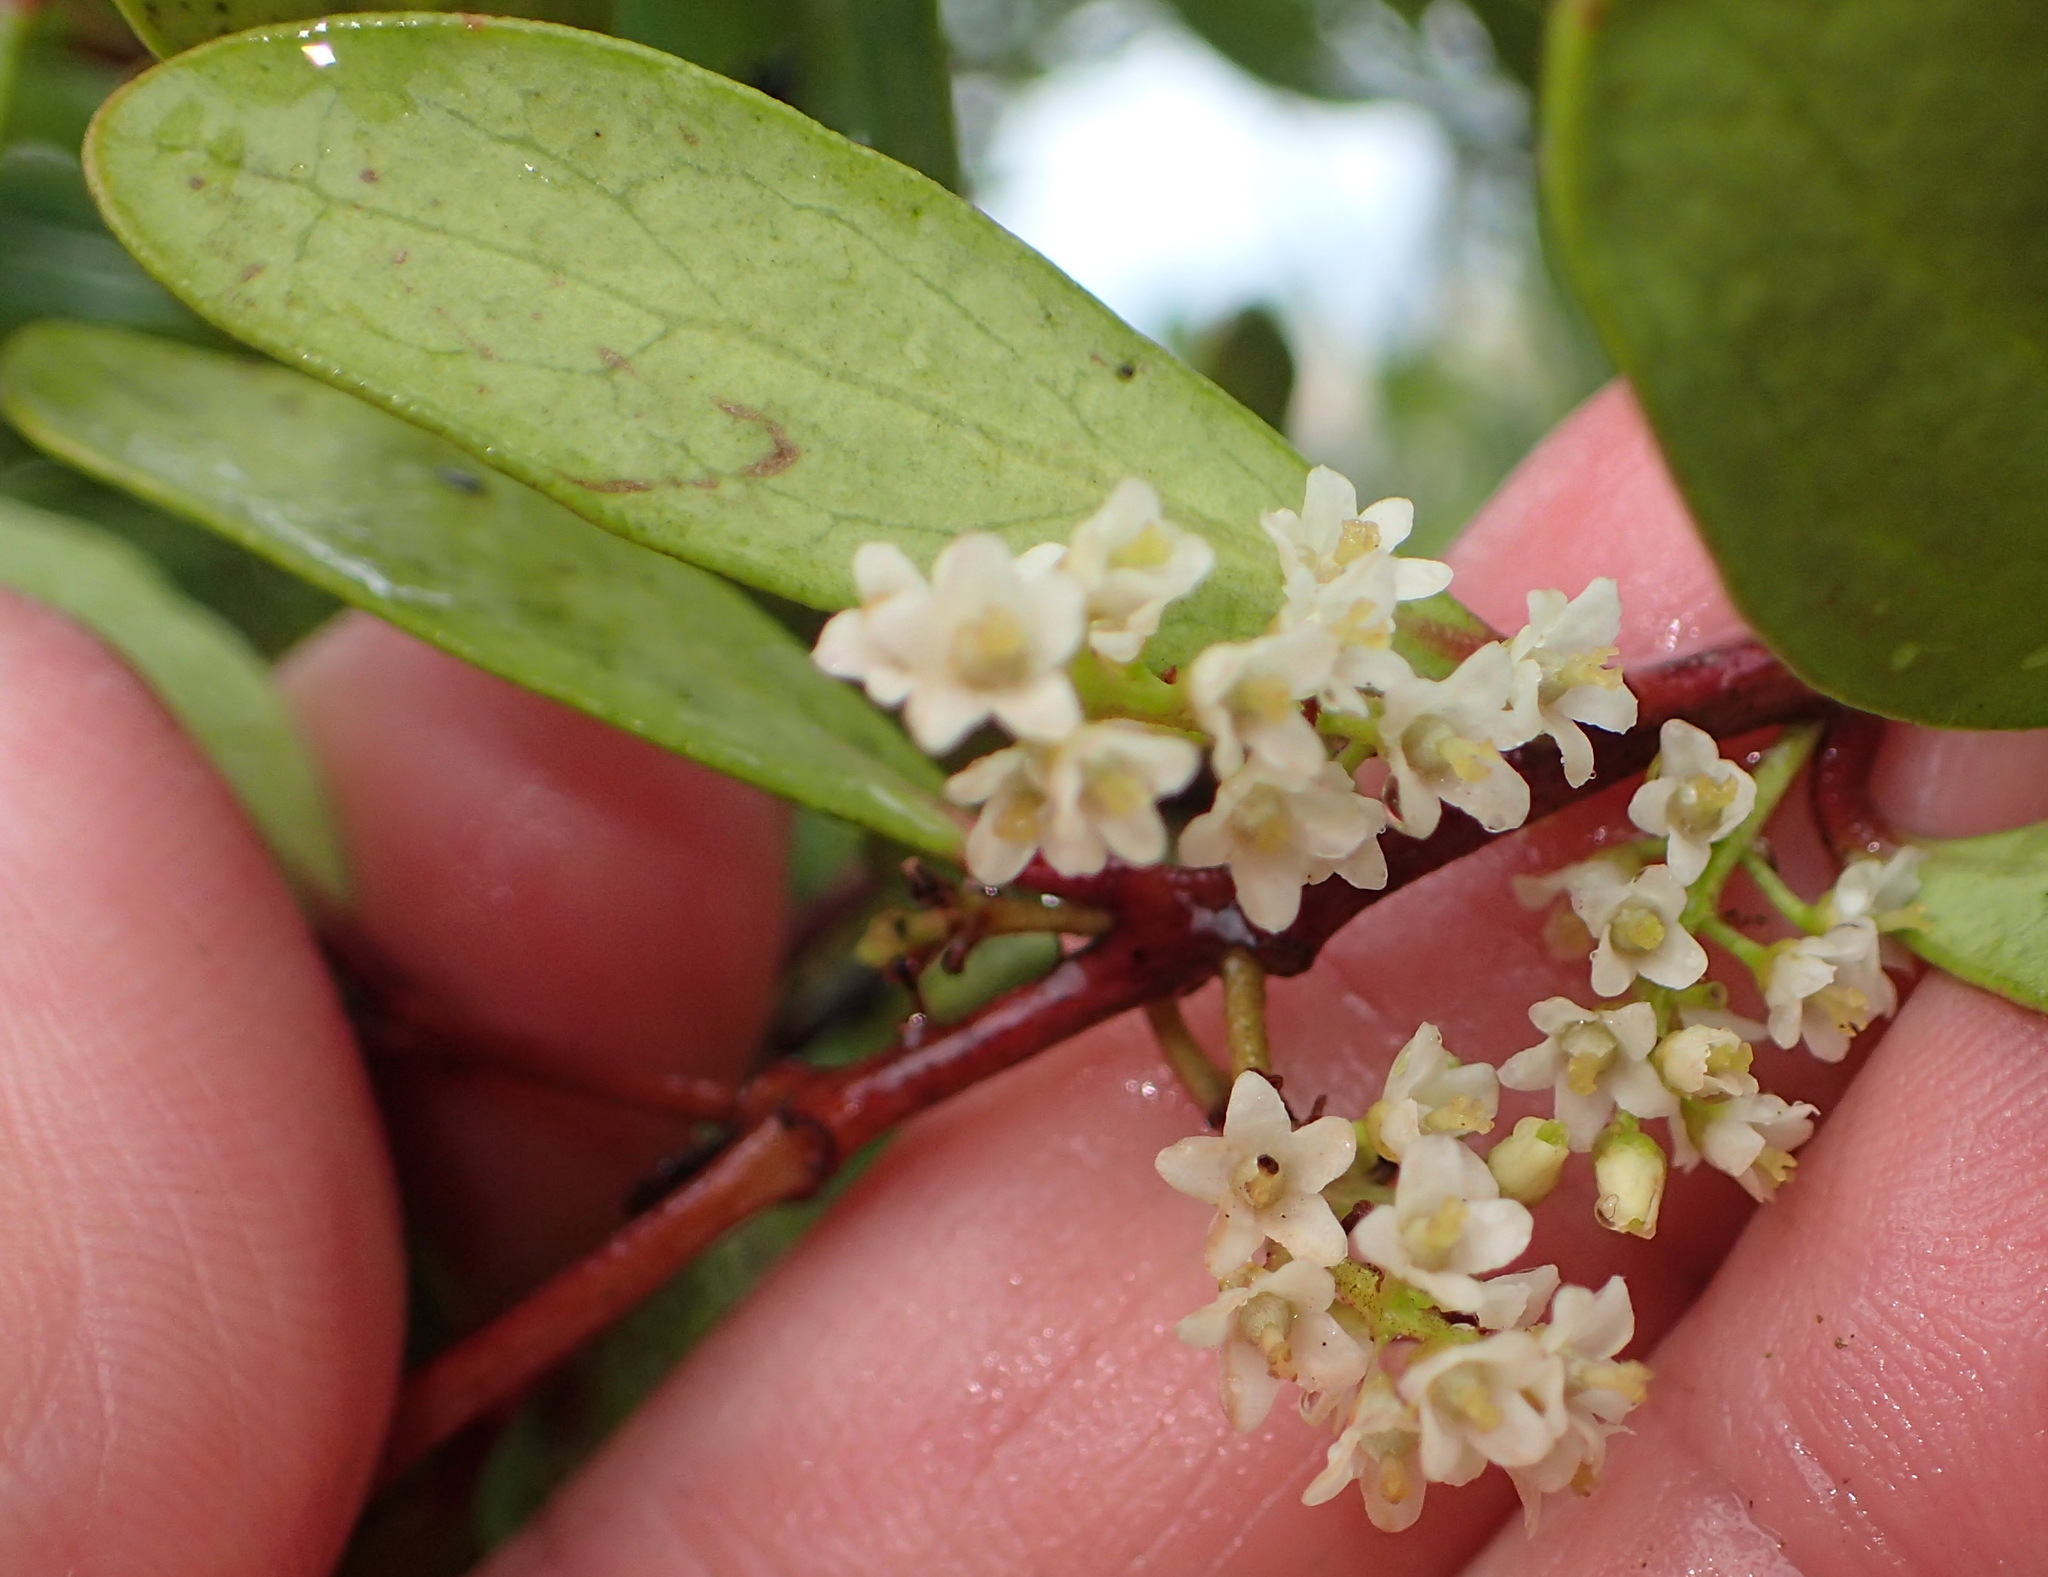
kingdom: Plantae
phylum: Tracheophyta
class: Magnoliopsida
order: Ericales
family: Ebenaceae
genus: Euclea
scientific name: Euclea racemosa
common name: Dune guarri
